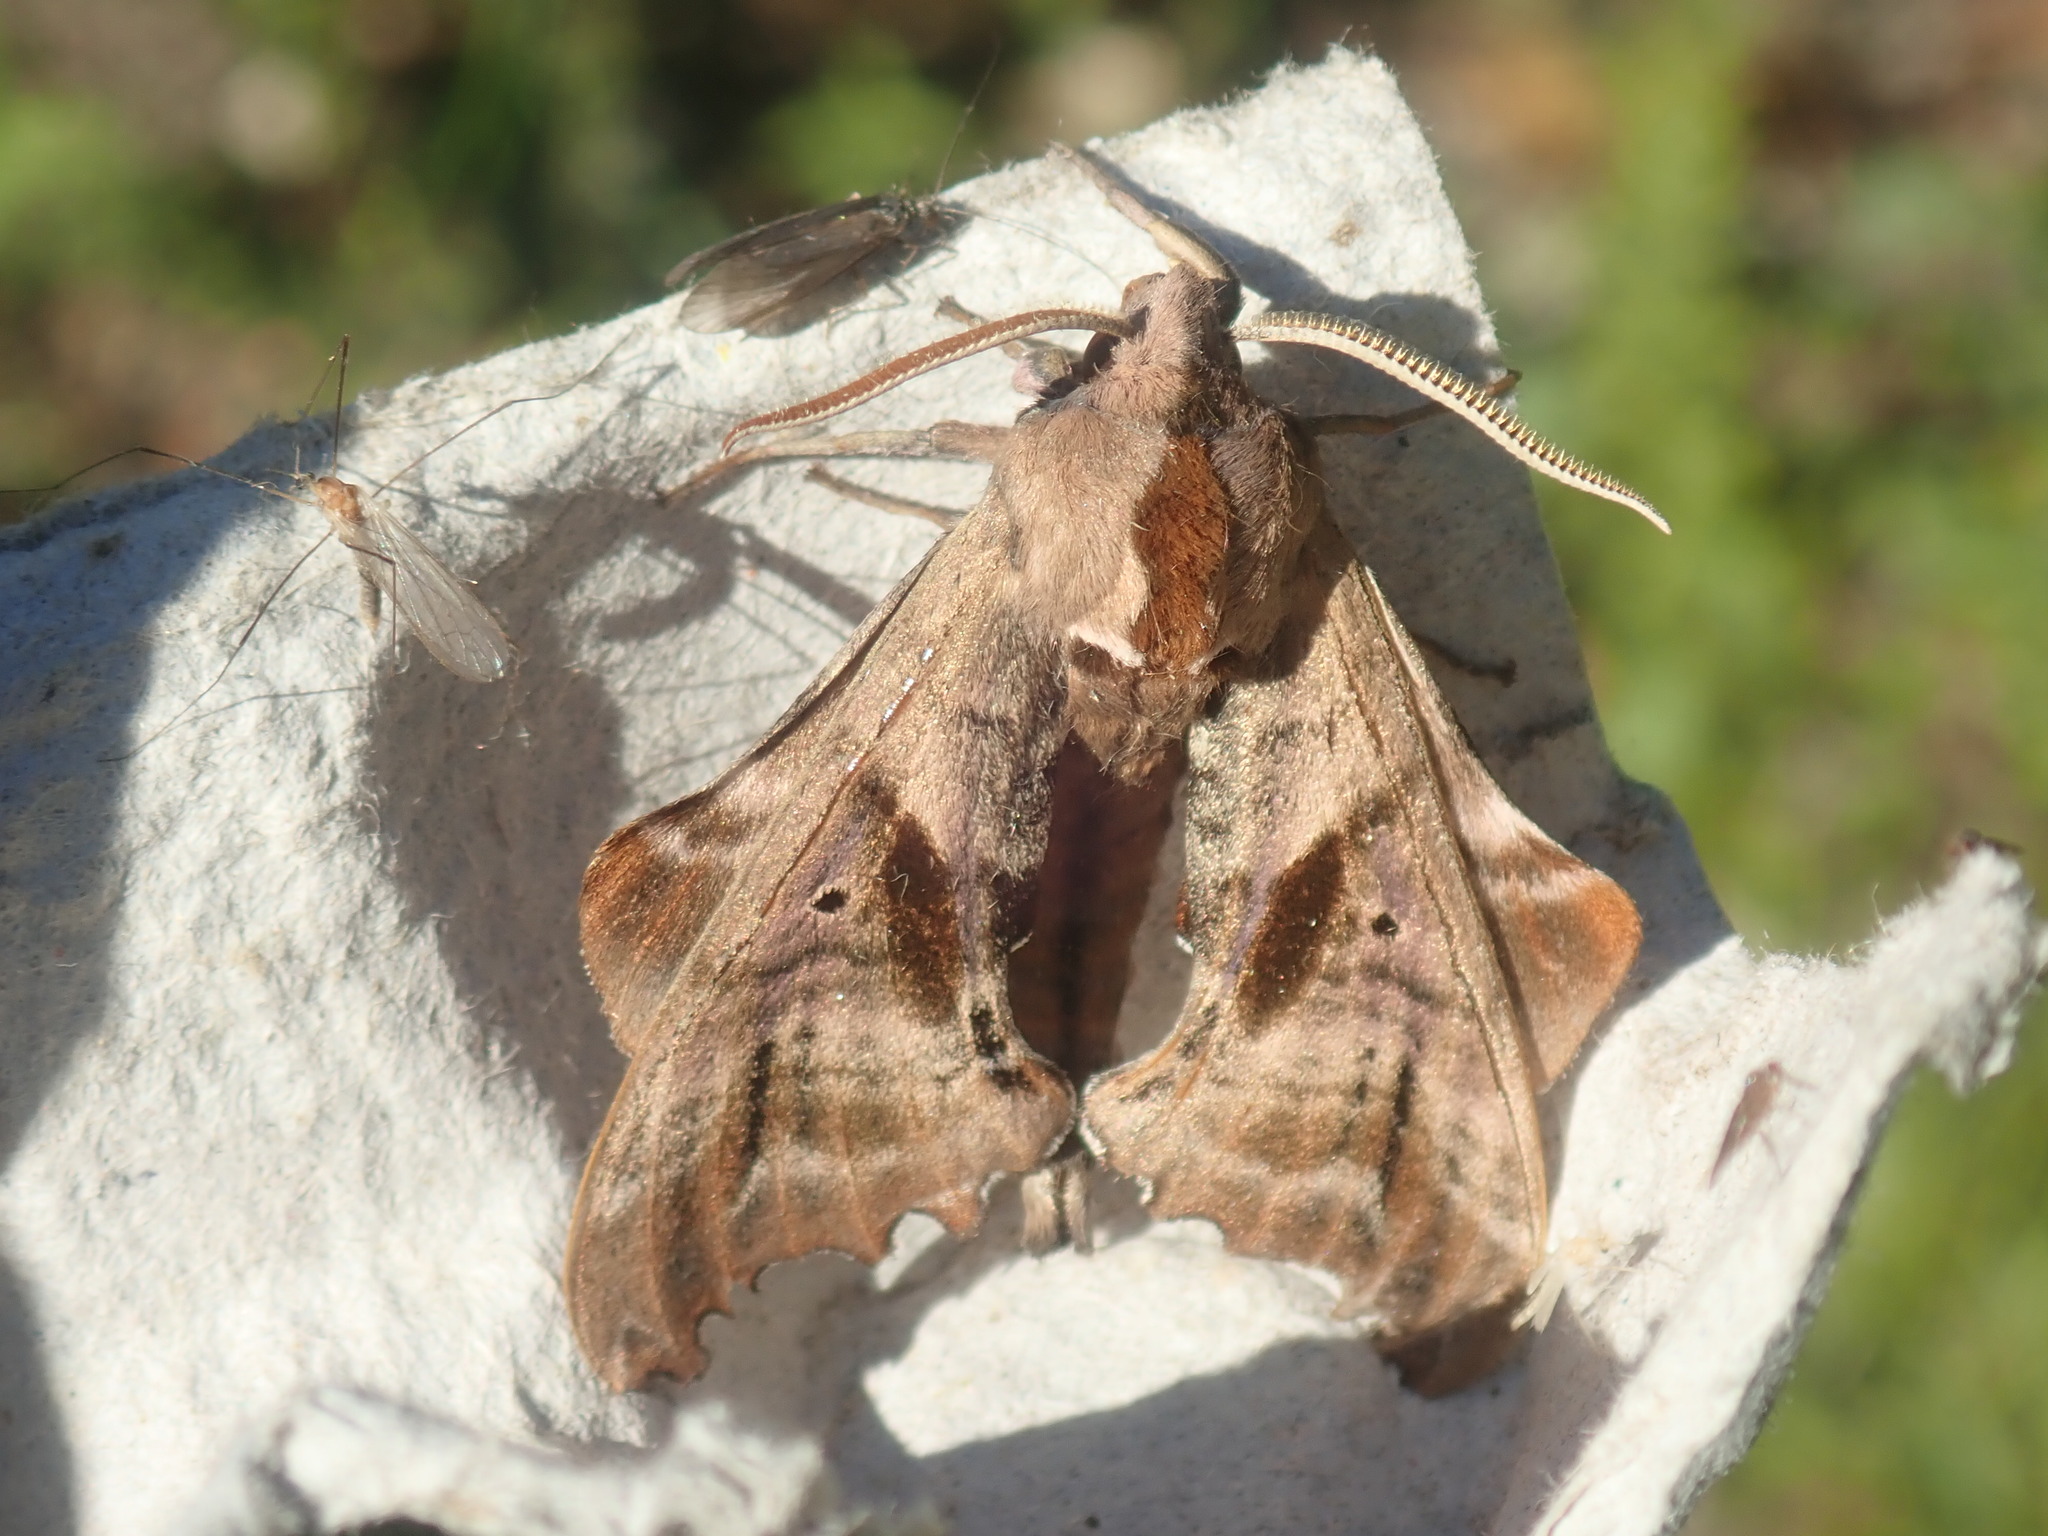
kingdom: Animalia
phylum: Arthropoda
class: Insecta
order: Lepidoptera
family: Sphingidae
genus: Paonias
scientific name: Paonias excaecata
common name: Blind-eyed sphinx
